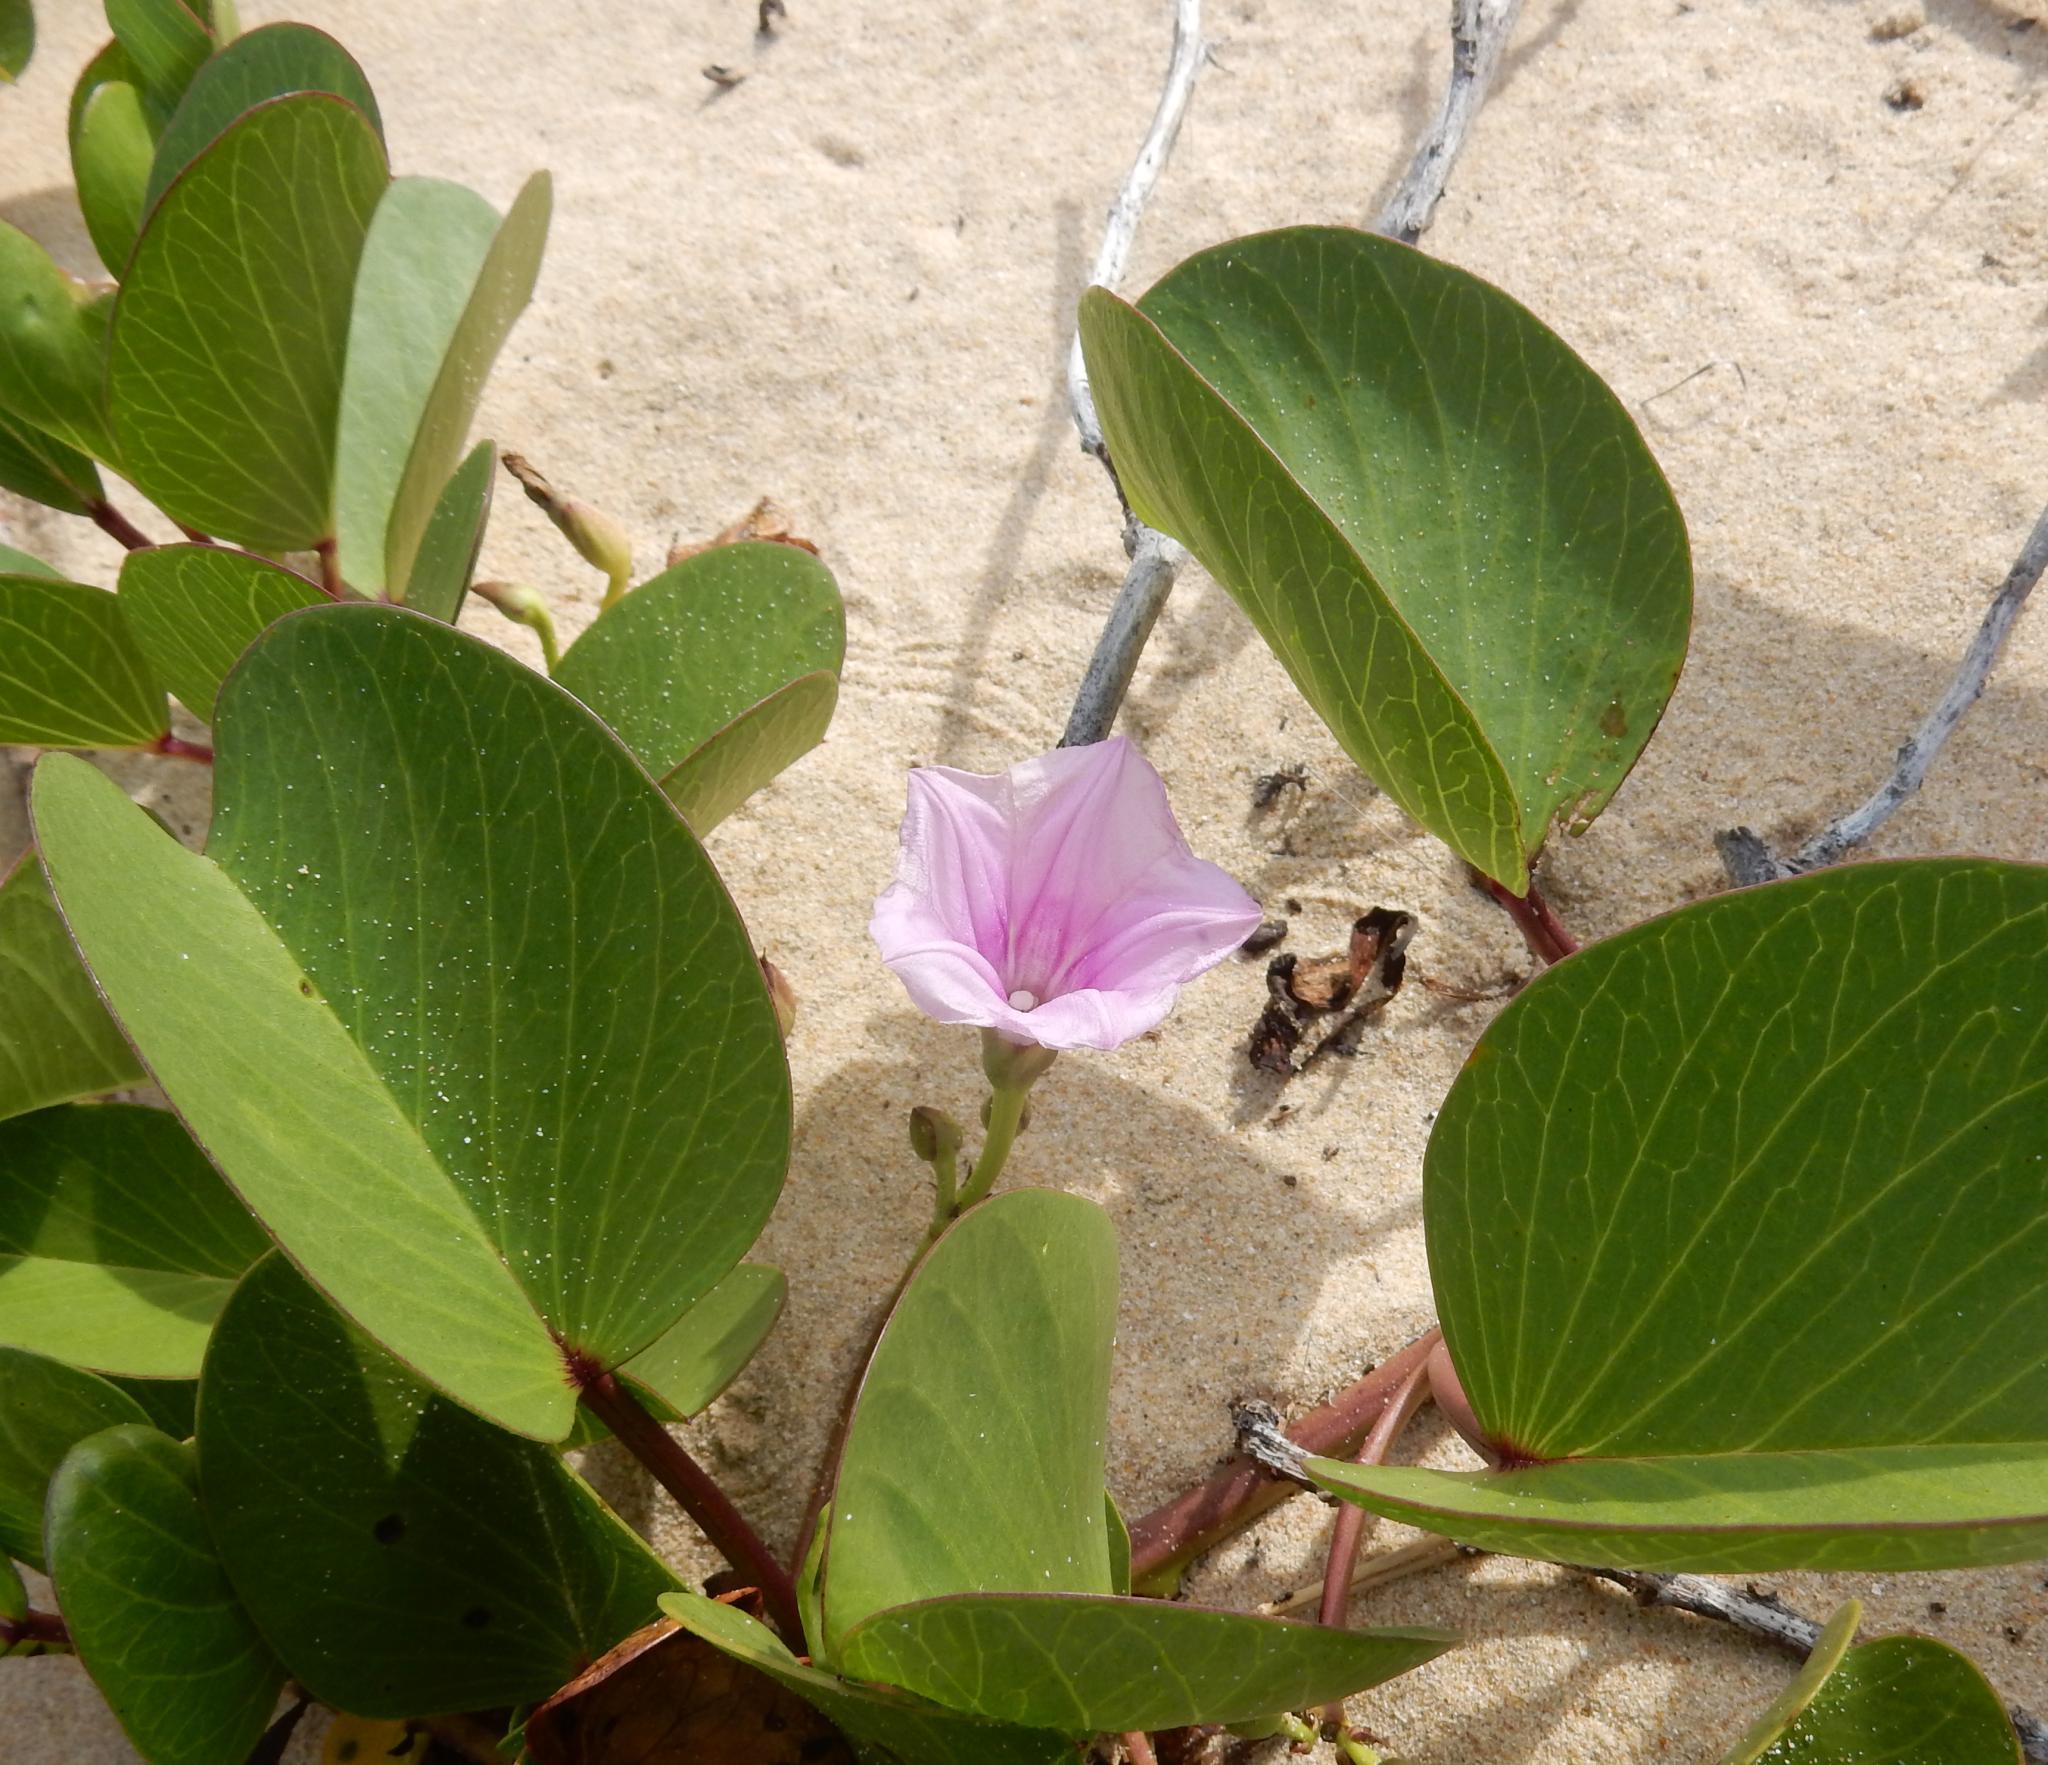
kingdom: Plantae
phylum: Tracheophyta
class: Magnoliopsida
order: Solanales
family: Convolvulaceae
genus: Ipomoea
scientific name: Ipomoea pes-caprae
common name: Beach morning glory
